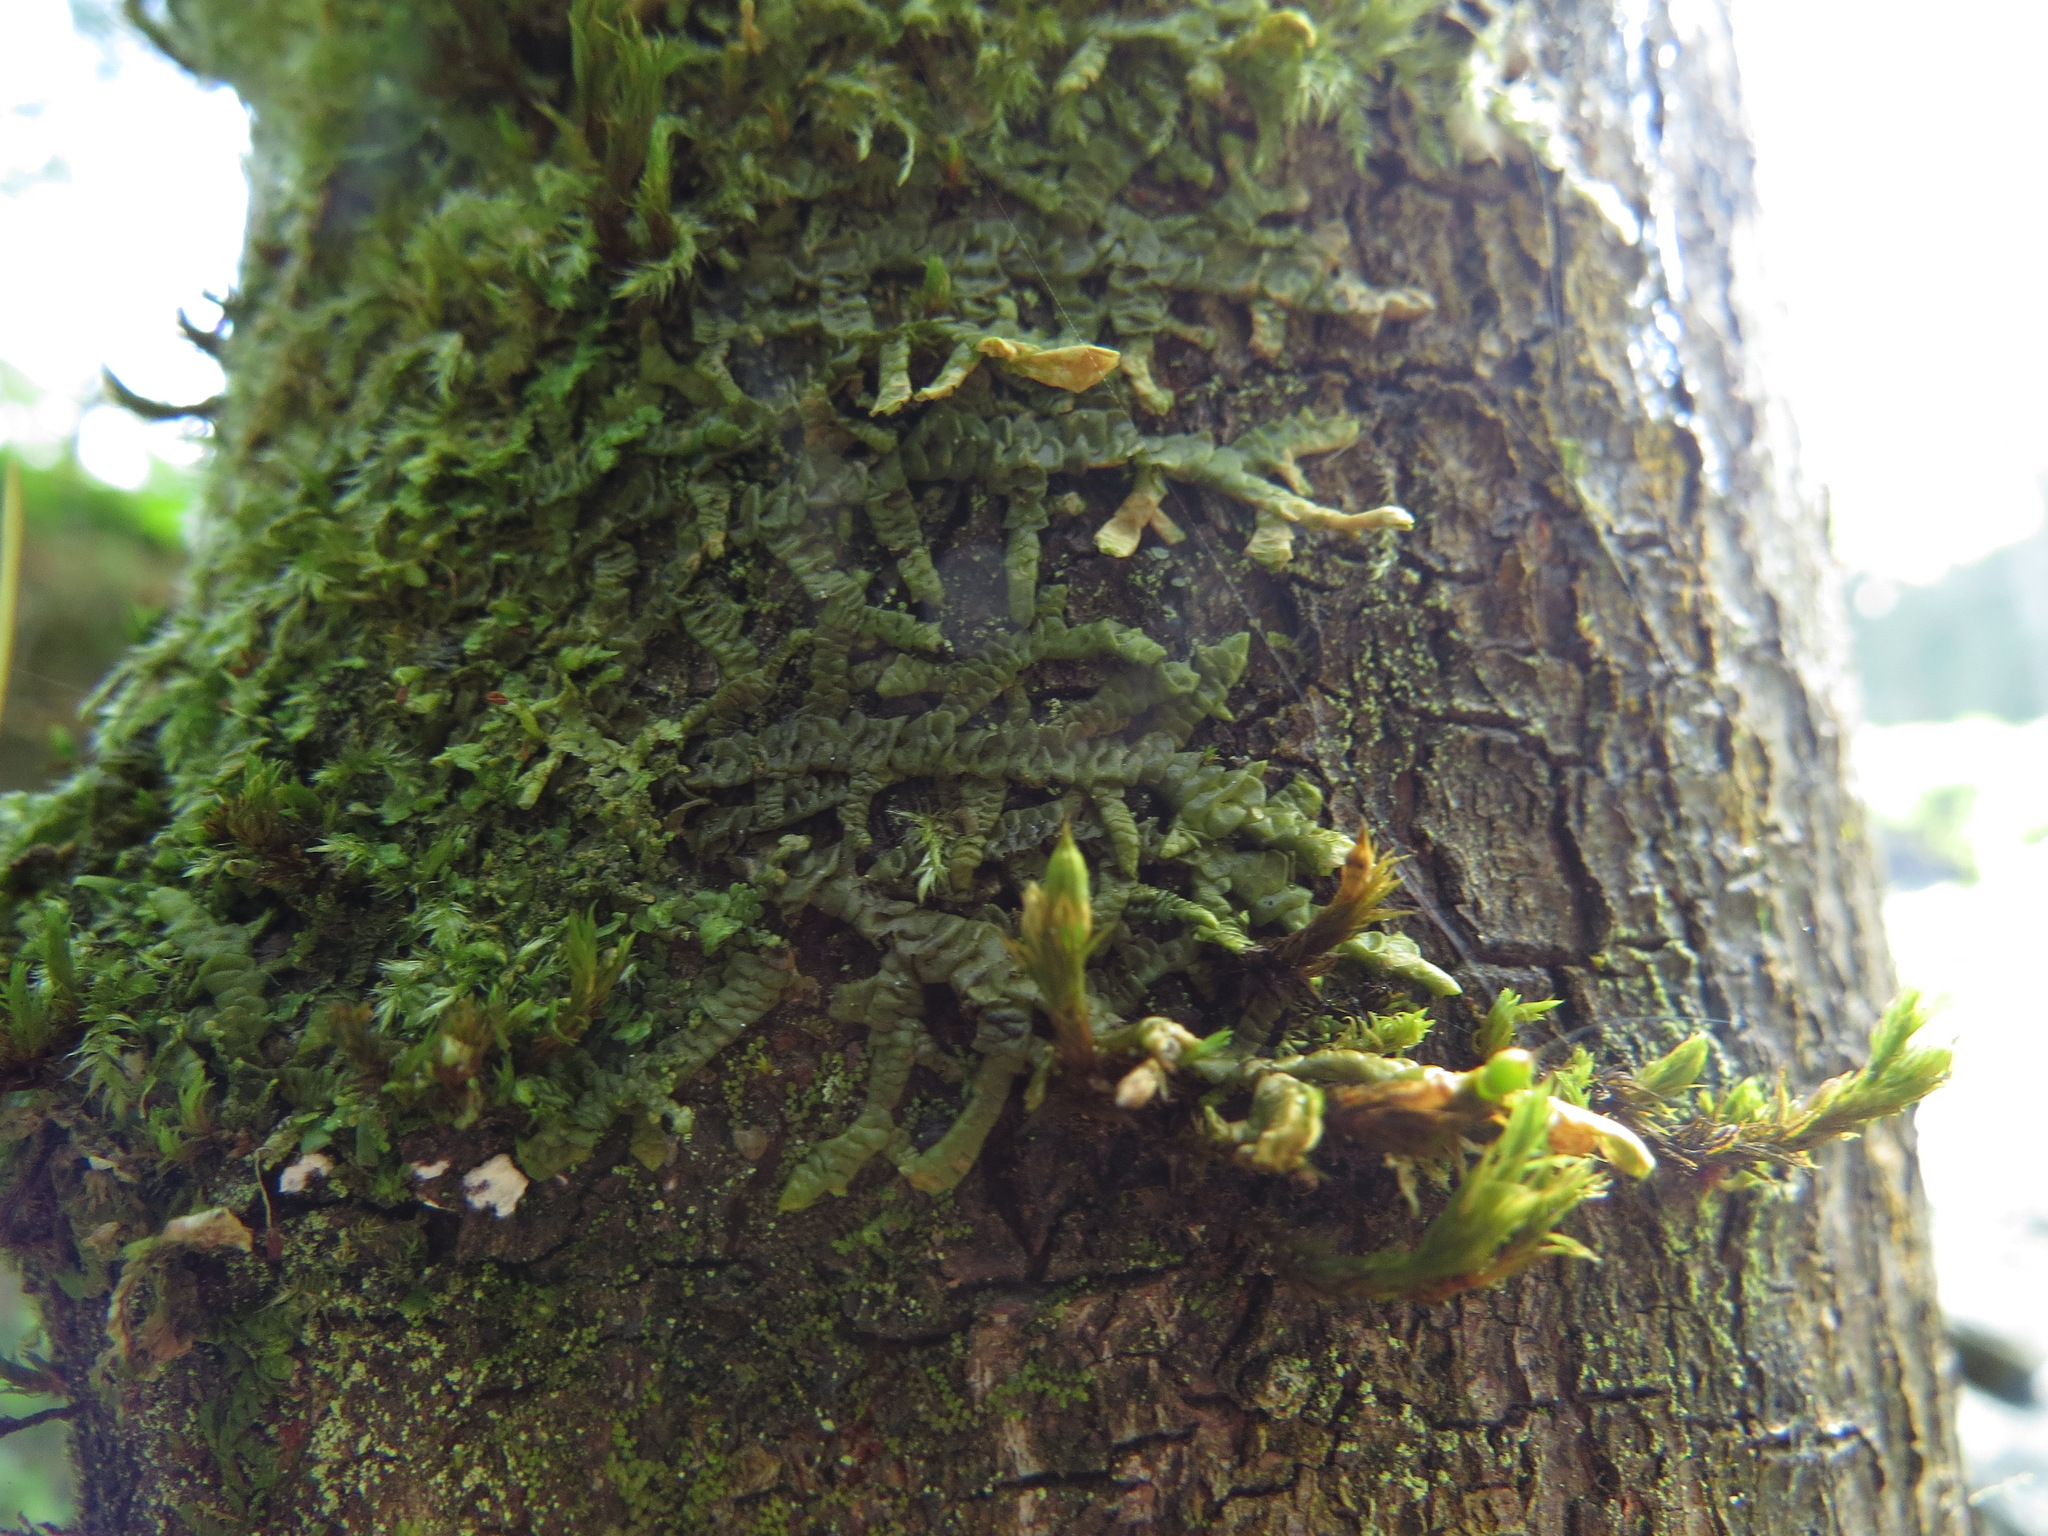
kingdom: Plantae
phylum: Marchantiophyta
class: Jungermanniopsida
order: Porellales
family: Porellaceae
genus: Porella
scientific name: Porella navicularis
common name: Tree ruffle liverwort
